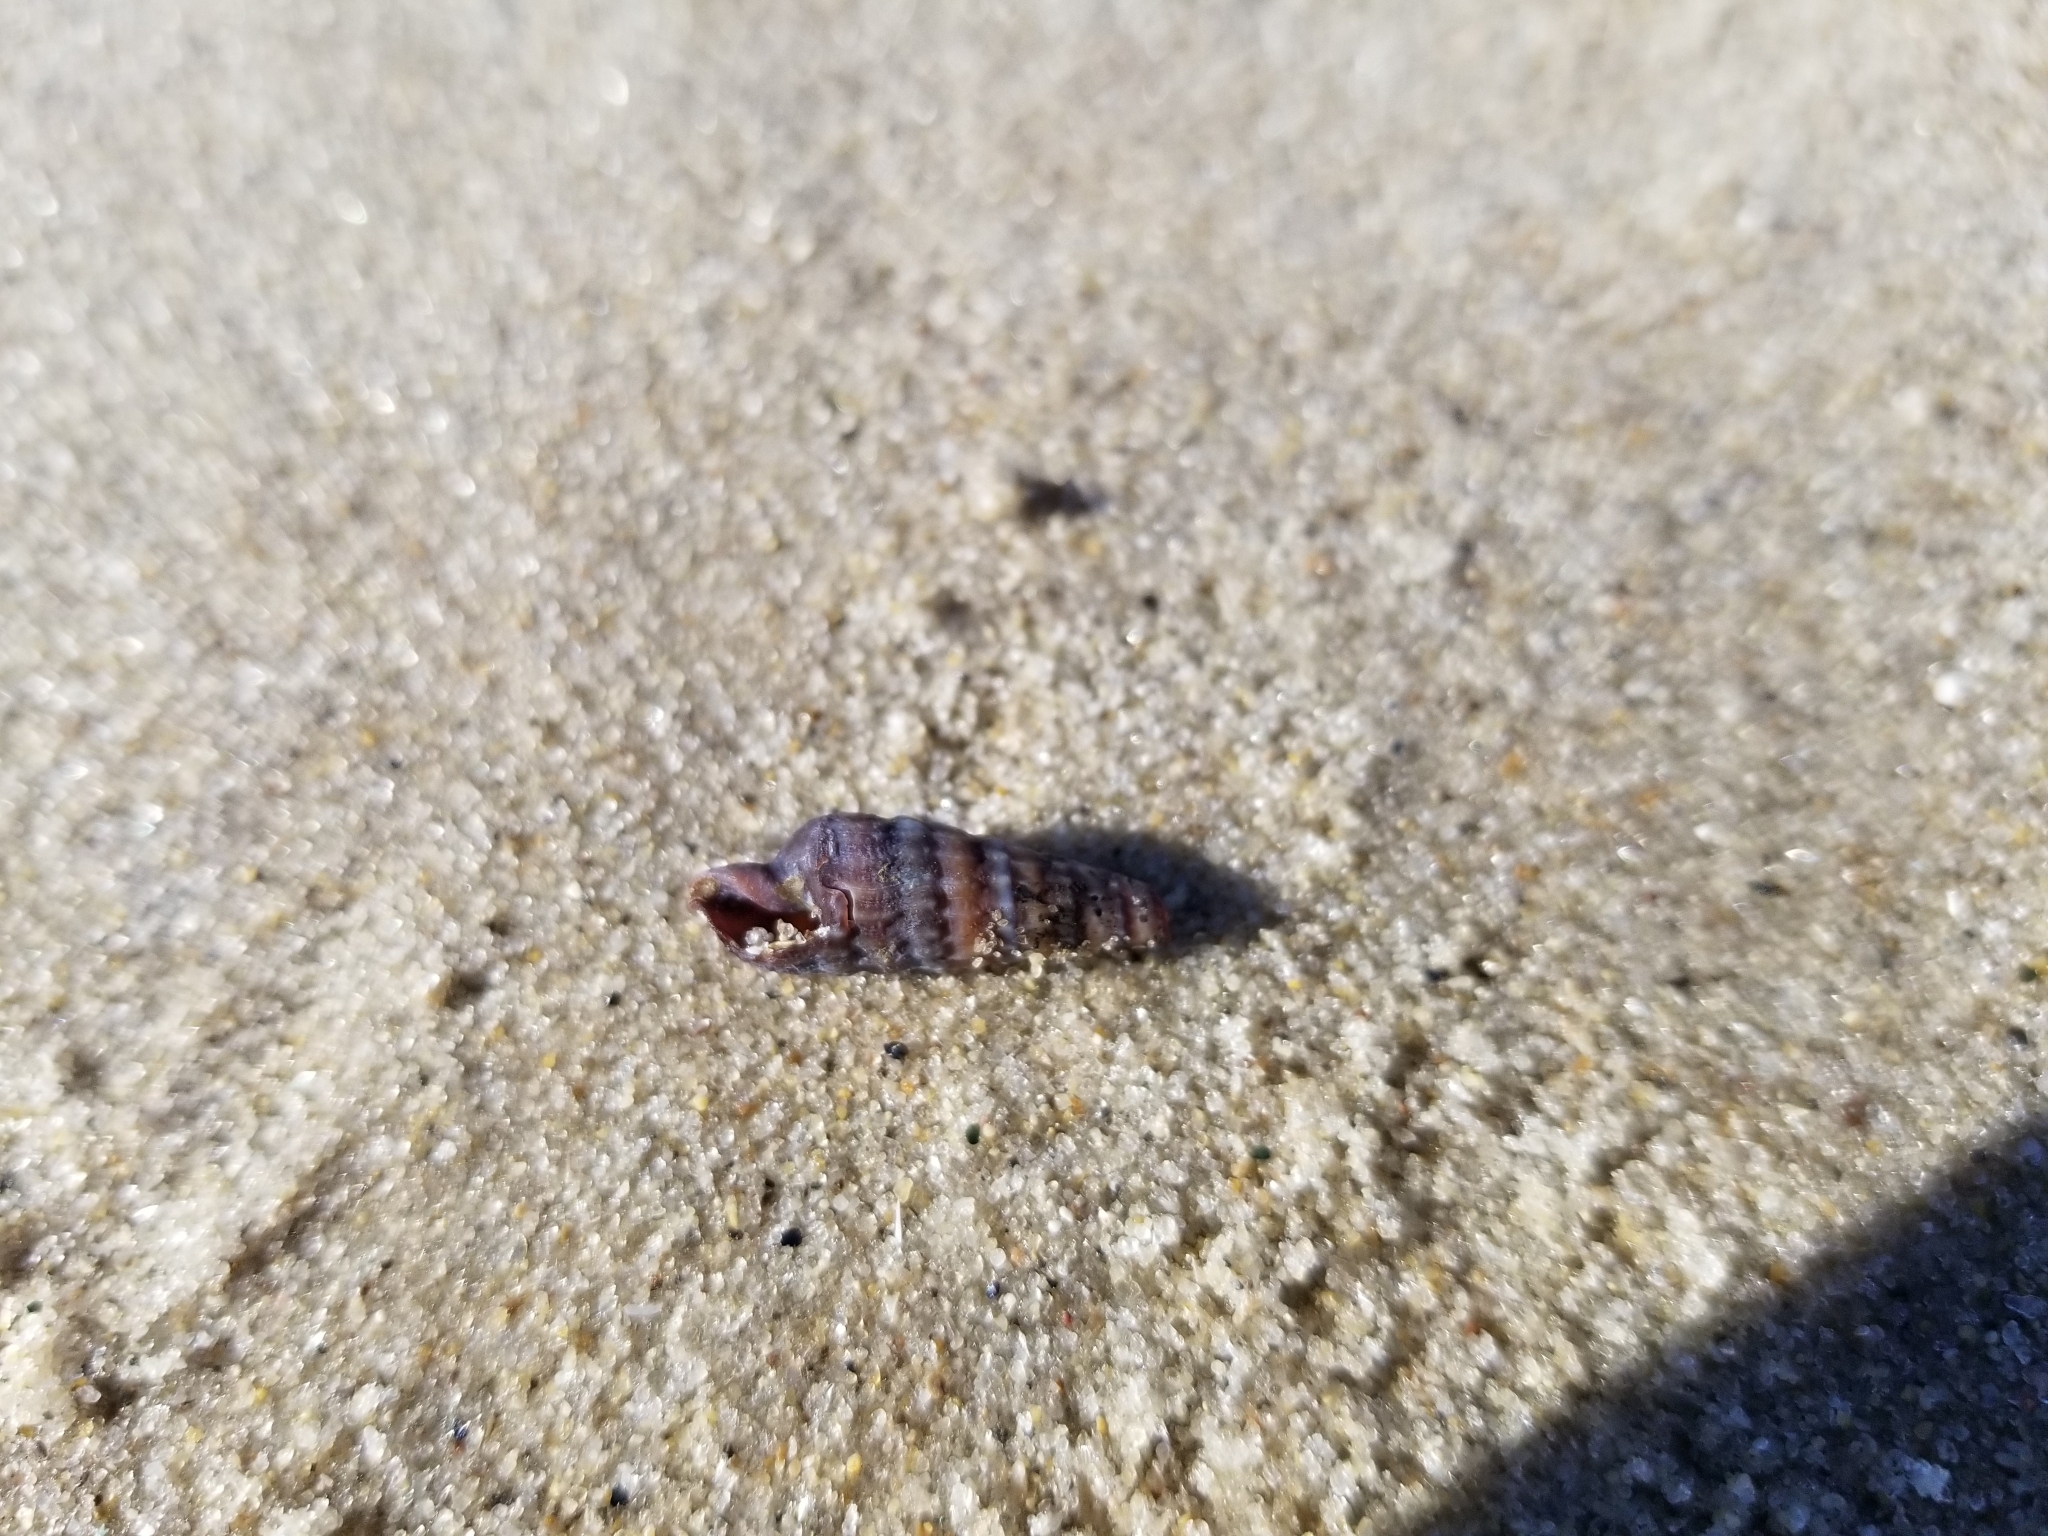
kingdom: Animalia
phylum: Mollusca
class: Gastropoda
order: Neogastropoda
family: Terebridae
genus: Neoterebra
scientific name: Neoterebra dislocata
